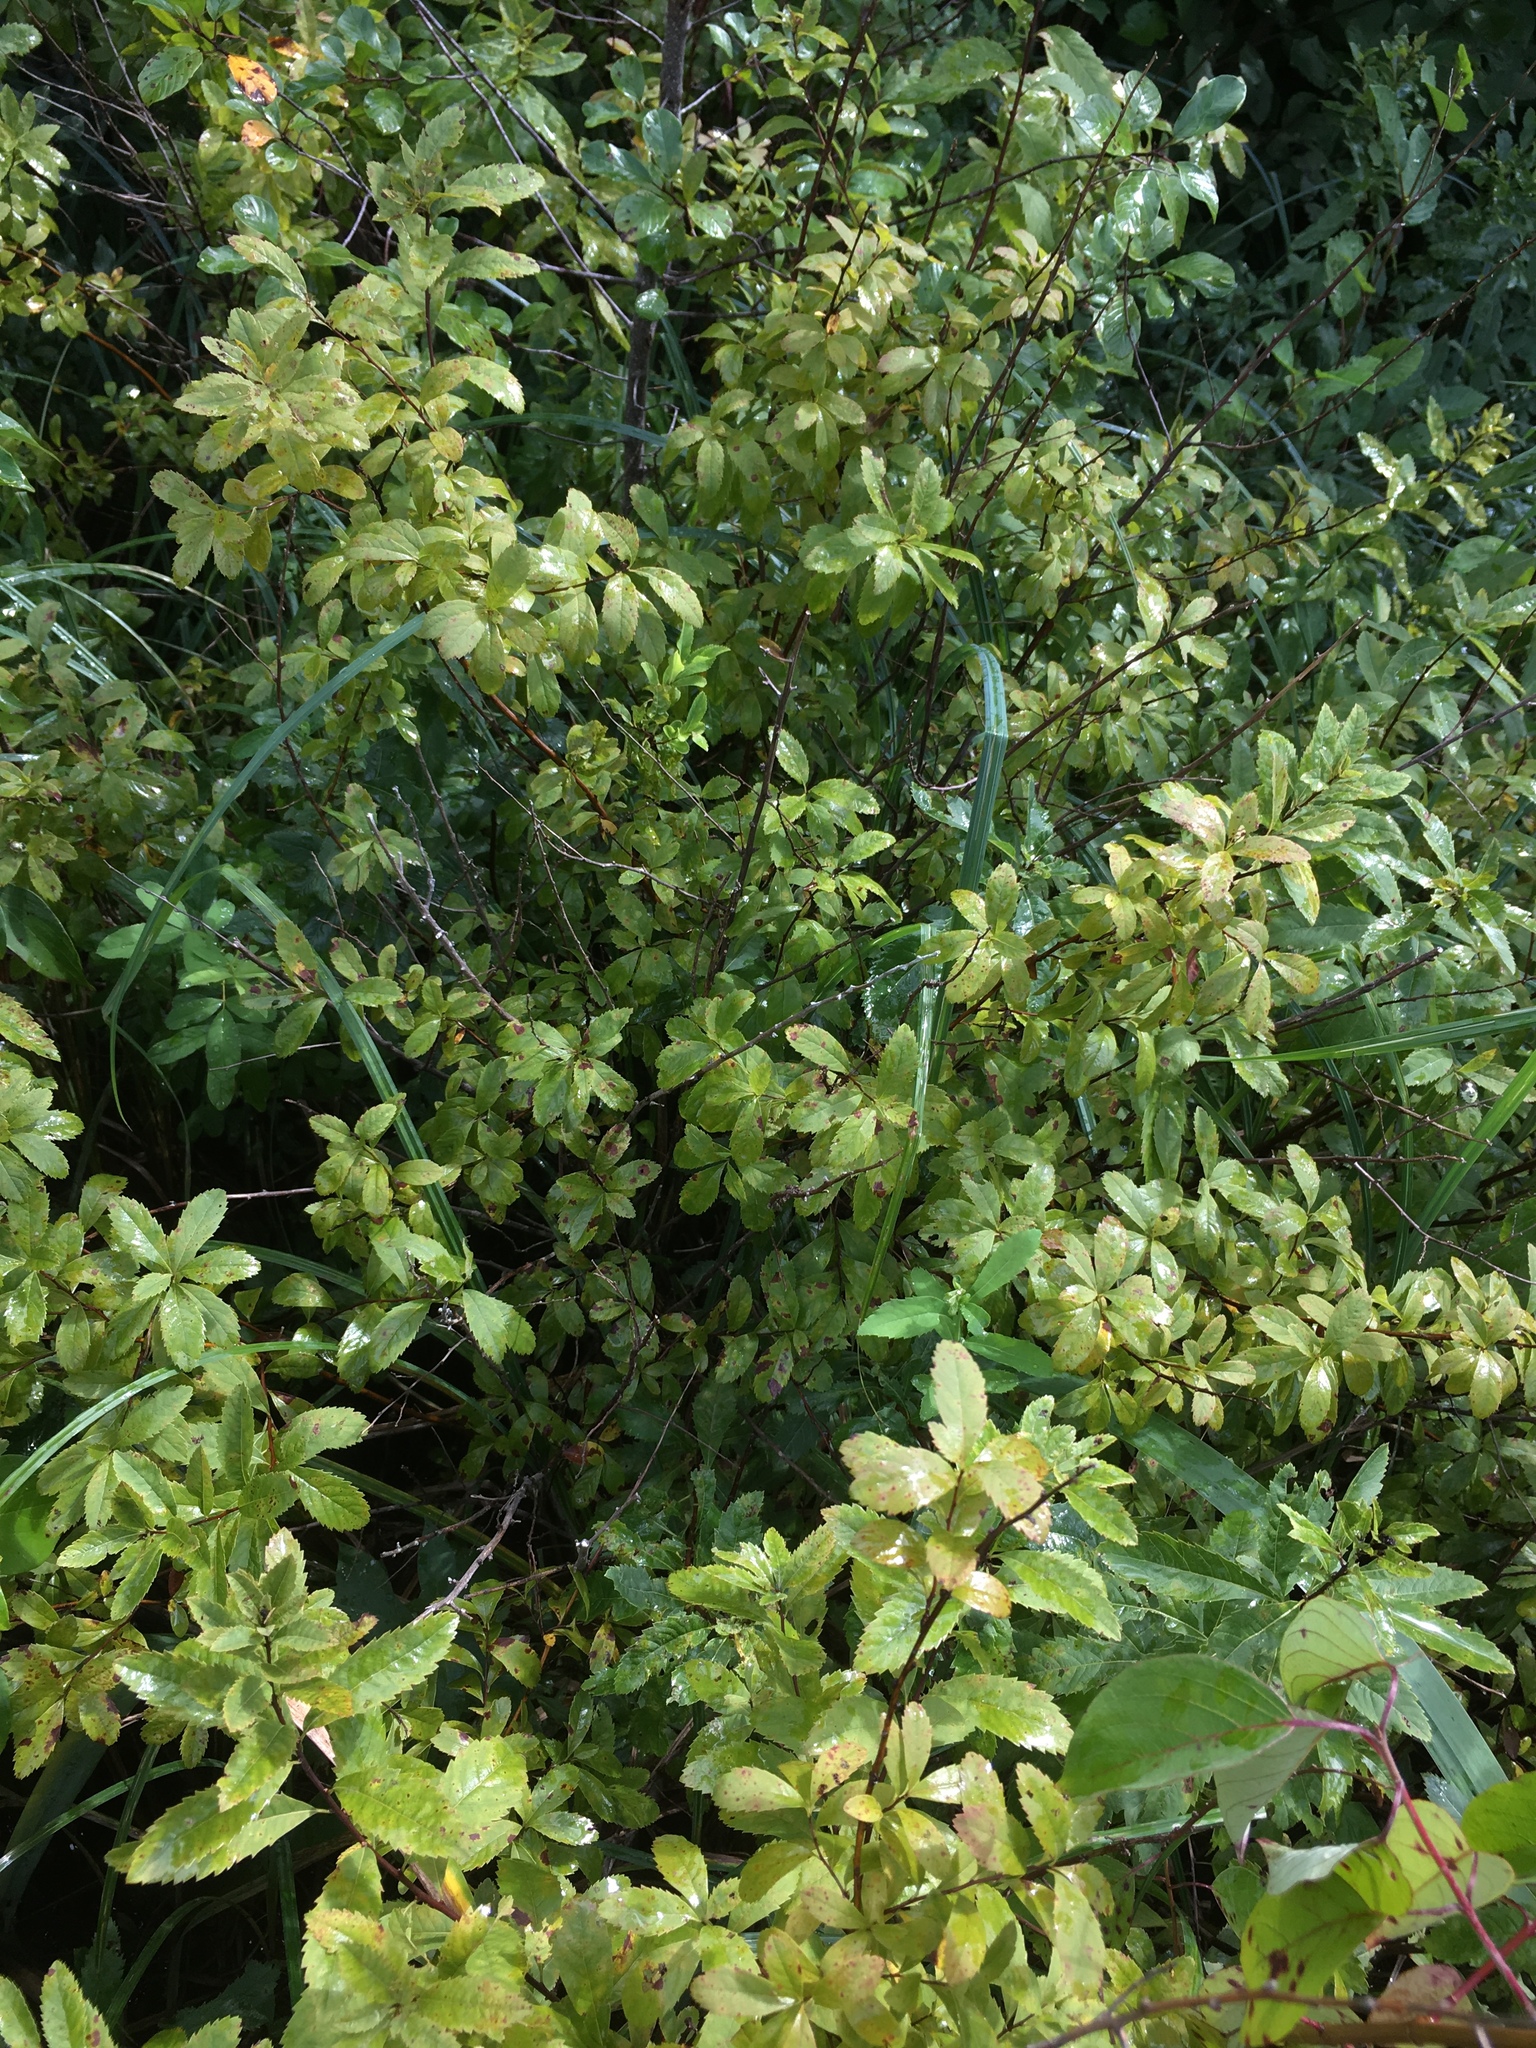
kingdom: Plantae
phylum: Tracheophyta
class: Magnoliopsida
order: Rosales
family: Rosaceae
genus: Spiraea
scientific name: Spiraea alba
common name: Pale bridewort
